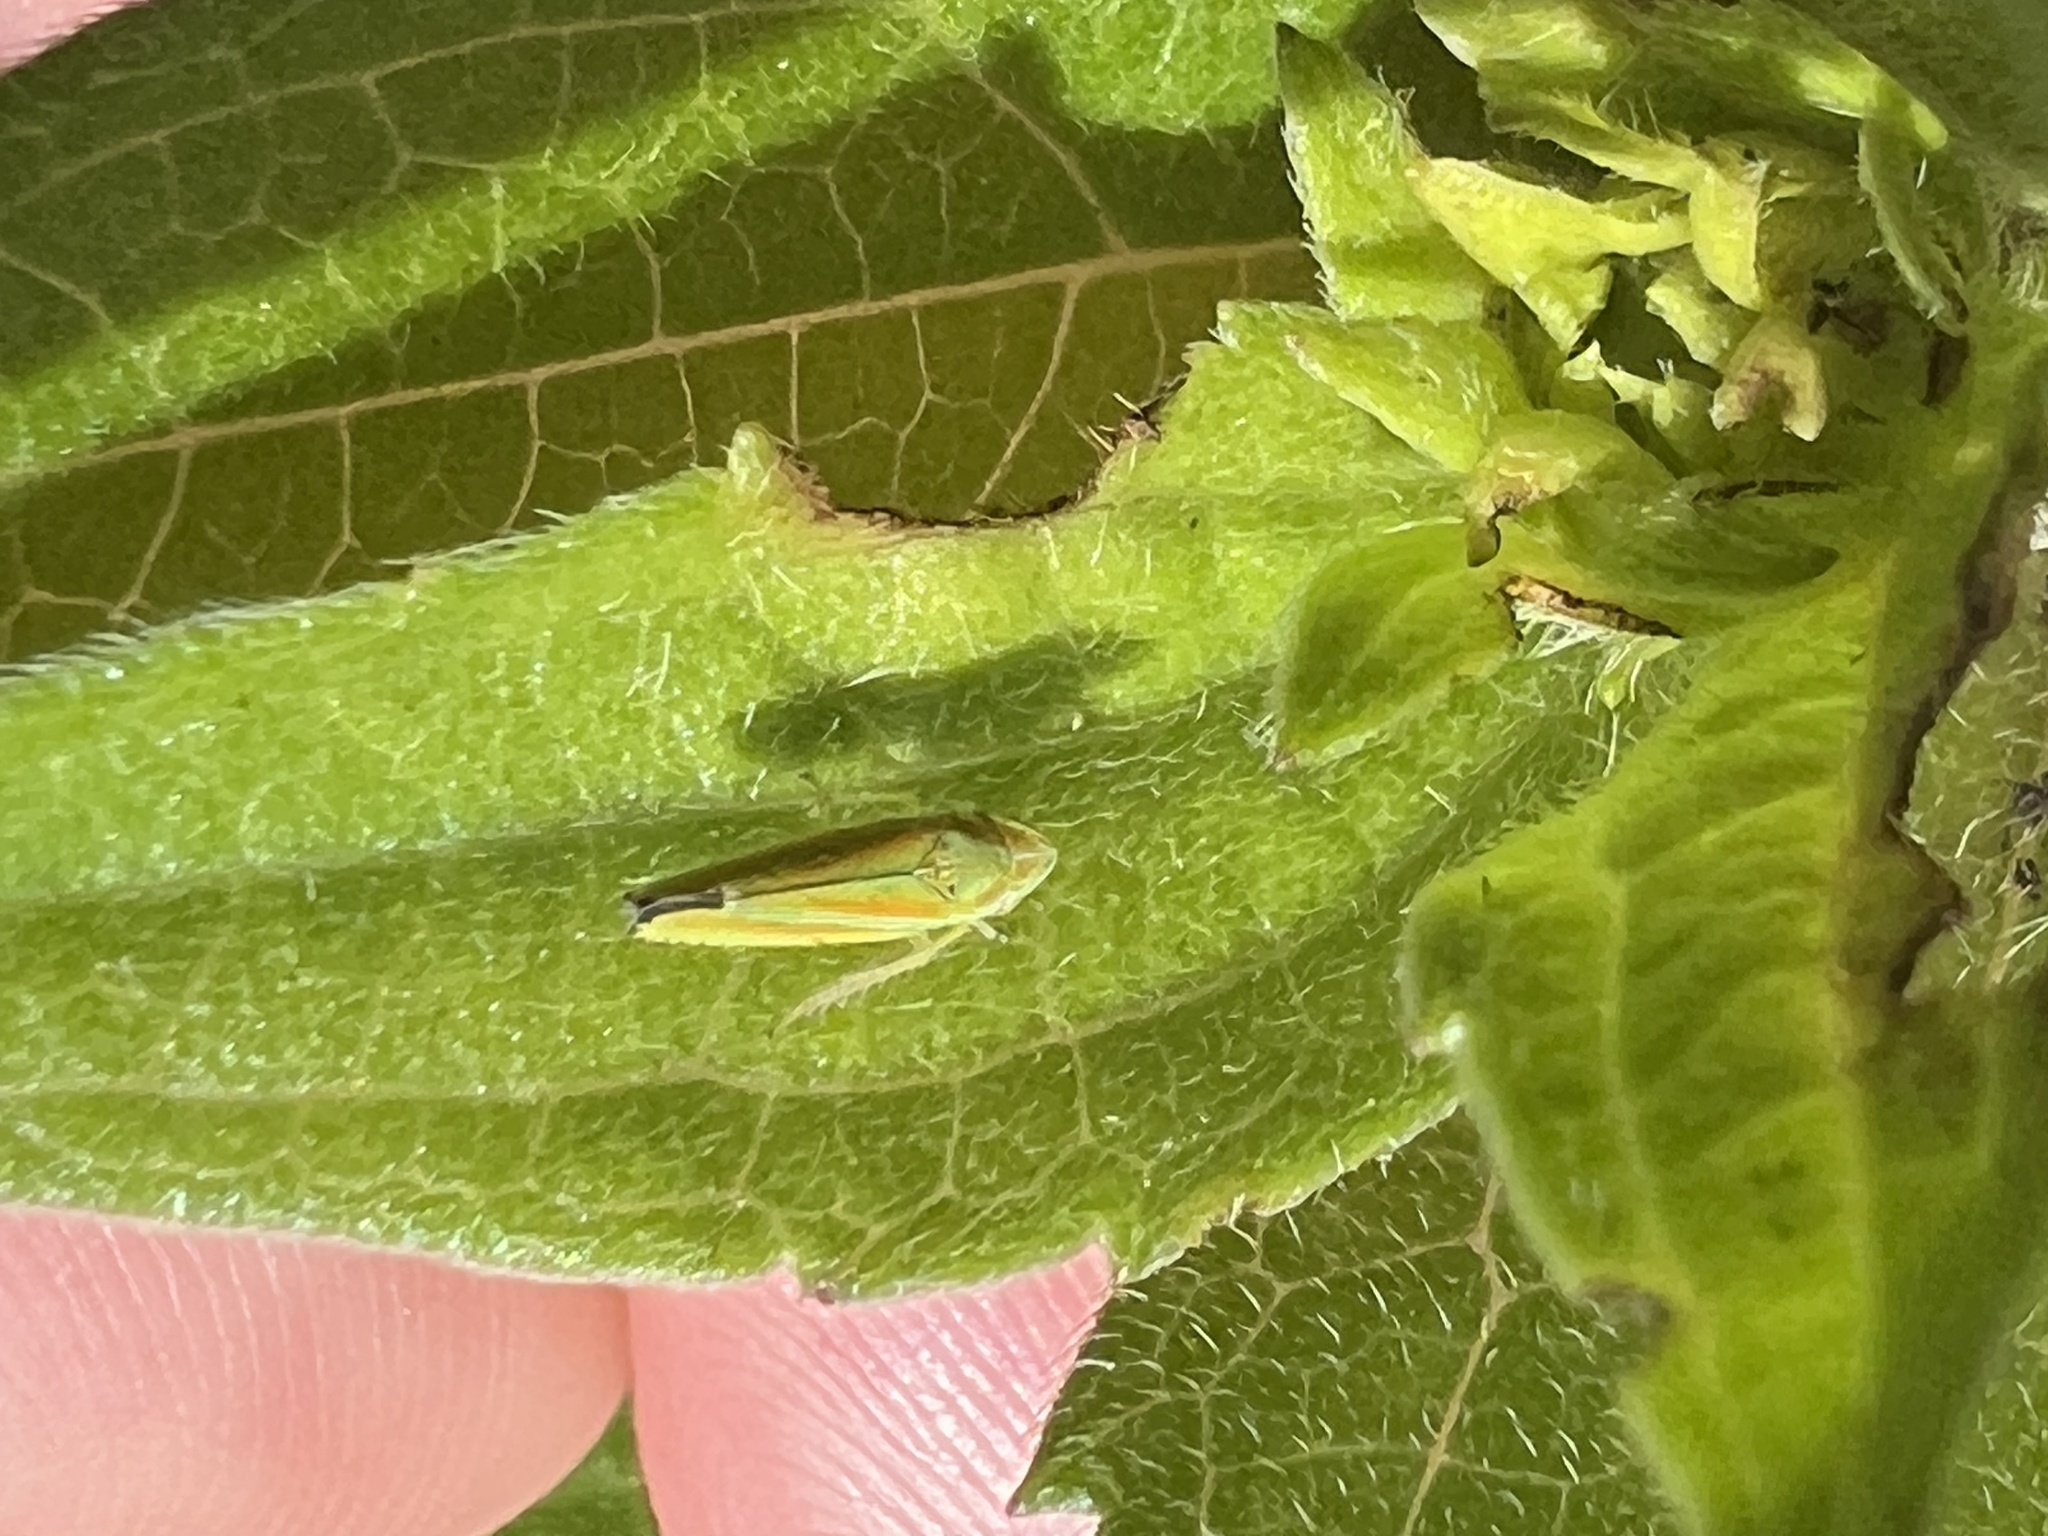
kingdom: Animalia
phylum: Arthropoda
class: Insecta
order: Hemiptera
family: Cicadellidae
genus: Graphocephala
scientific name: Graphocephala versuta
